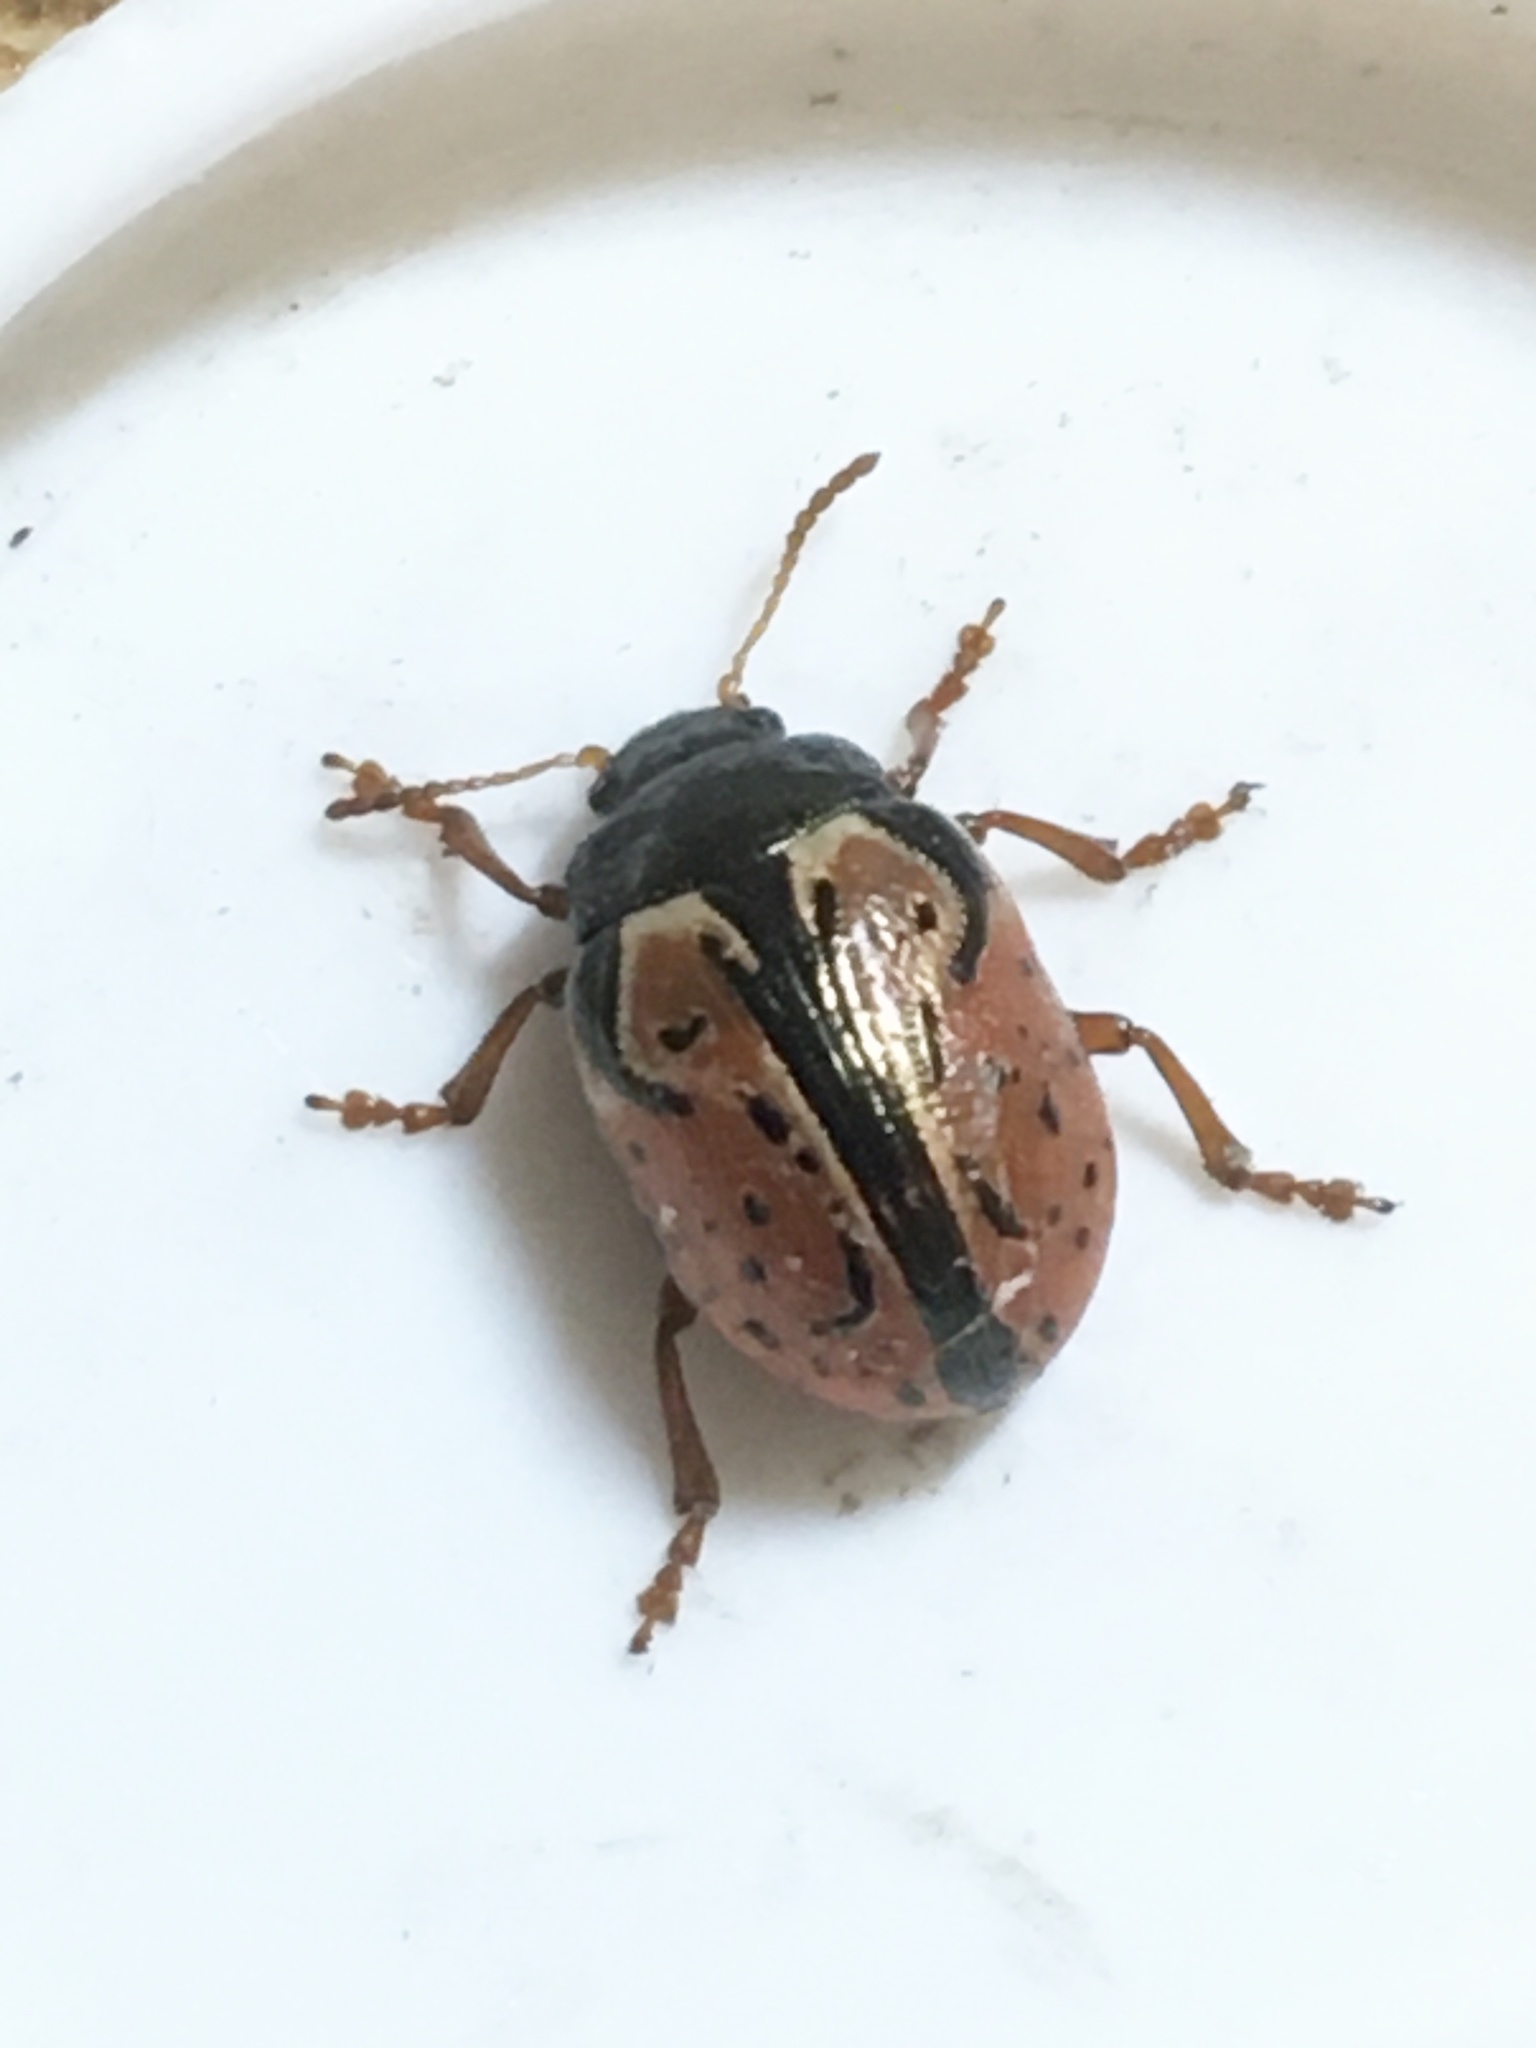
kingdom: Animalia
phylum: Arthropoda
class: Insecta
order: Coleoptera
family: Chrysomelidae
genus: Calligrapha
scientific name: Calligrapha spiraeae
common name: Ninebark calligrapha beetle
